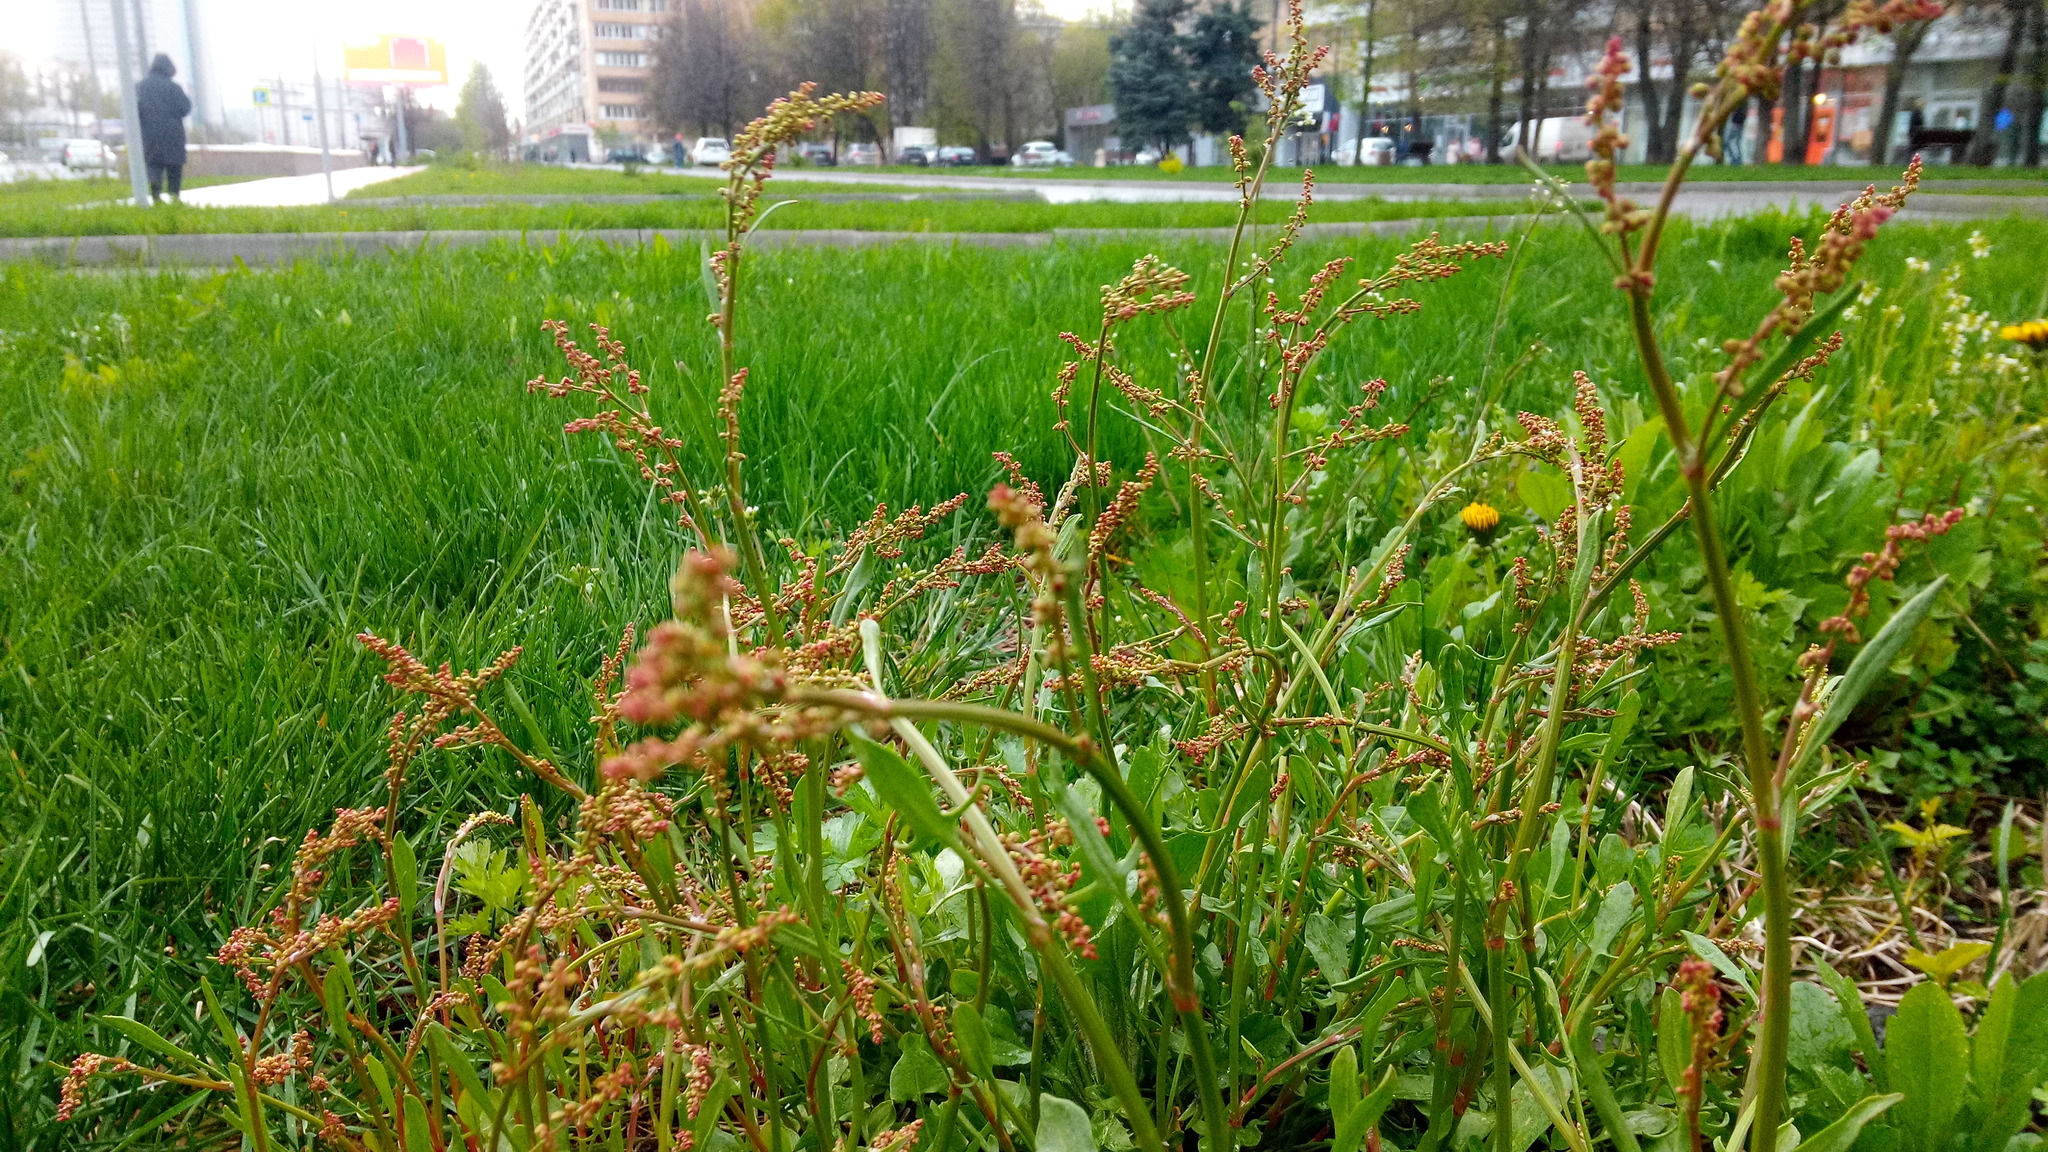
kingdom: Plantae
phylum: Tracheophyta
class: Magnoliopsida
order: Caryophyllales
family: Polygonaceae
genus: Rumex
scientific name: Rumex acetosella
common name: Common sheep sorrel
